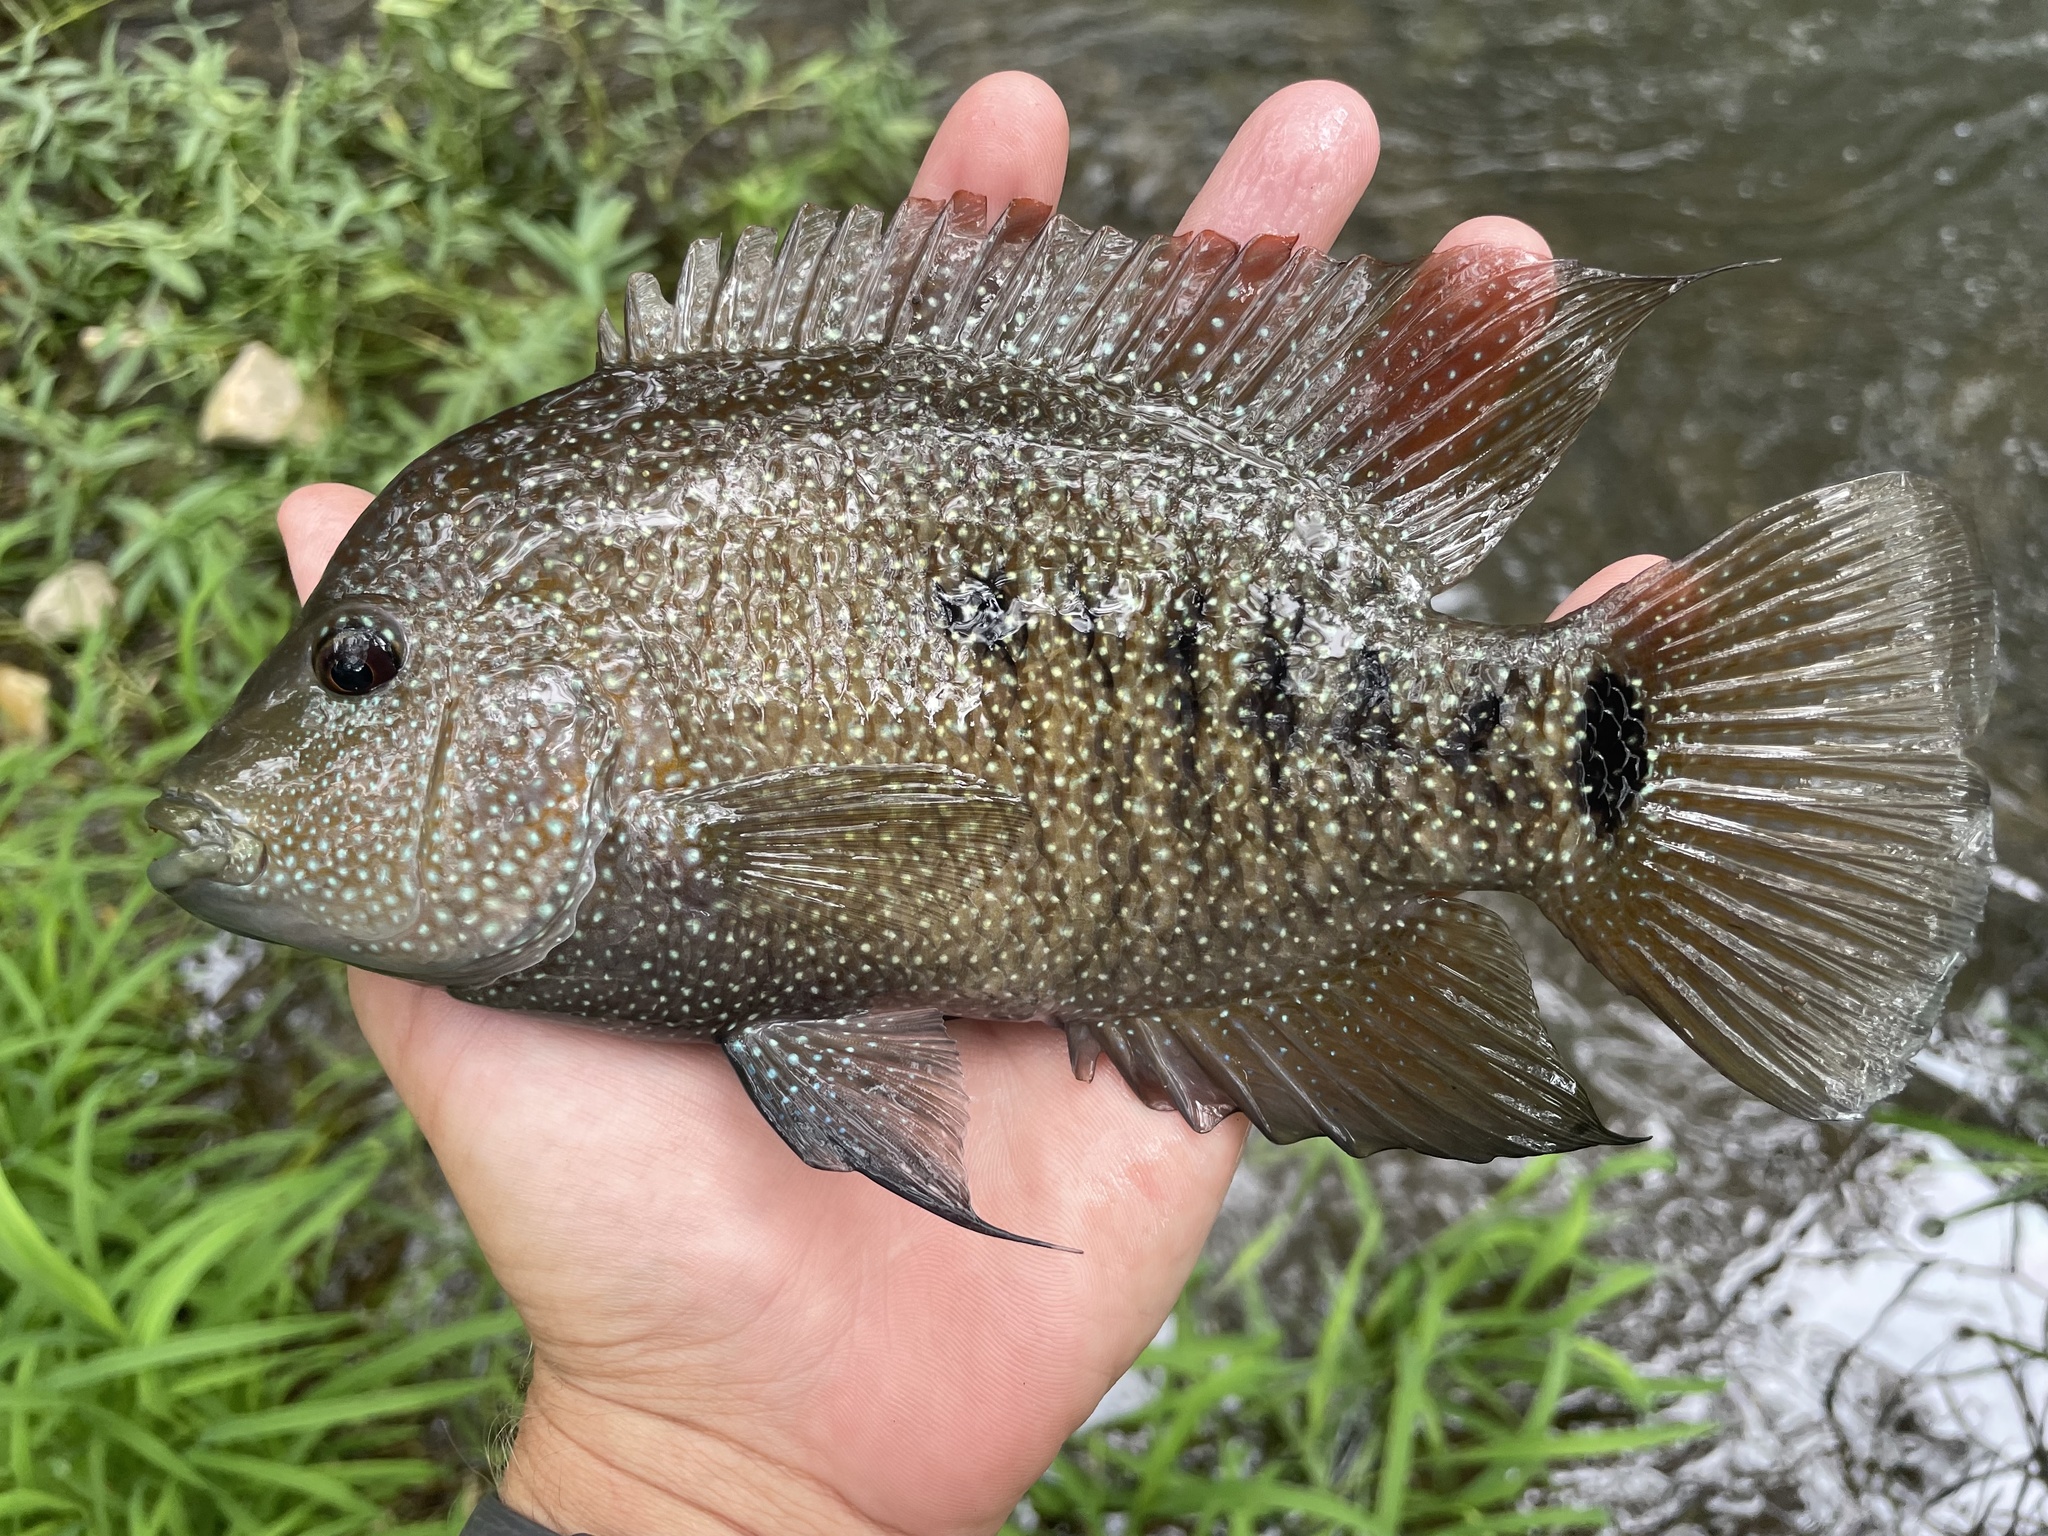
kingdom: Animalia
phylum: Chordata
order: Perciformes
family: Cichlidae
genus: Herichthys
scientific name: Herichthys cyanoguttatus
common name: Rio grande cichlid
